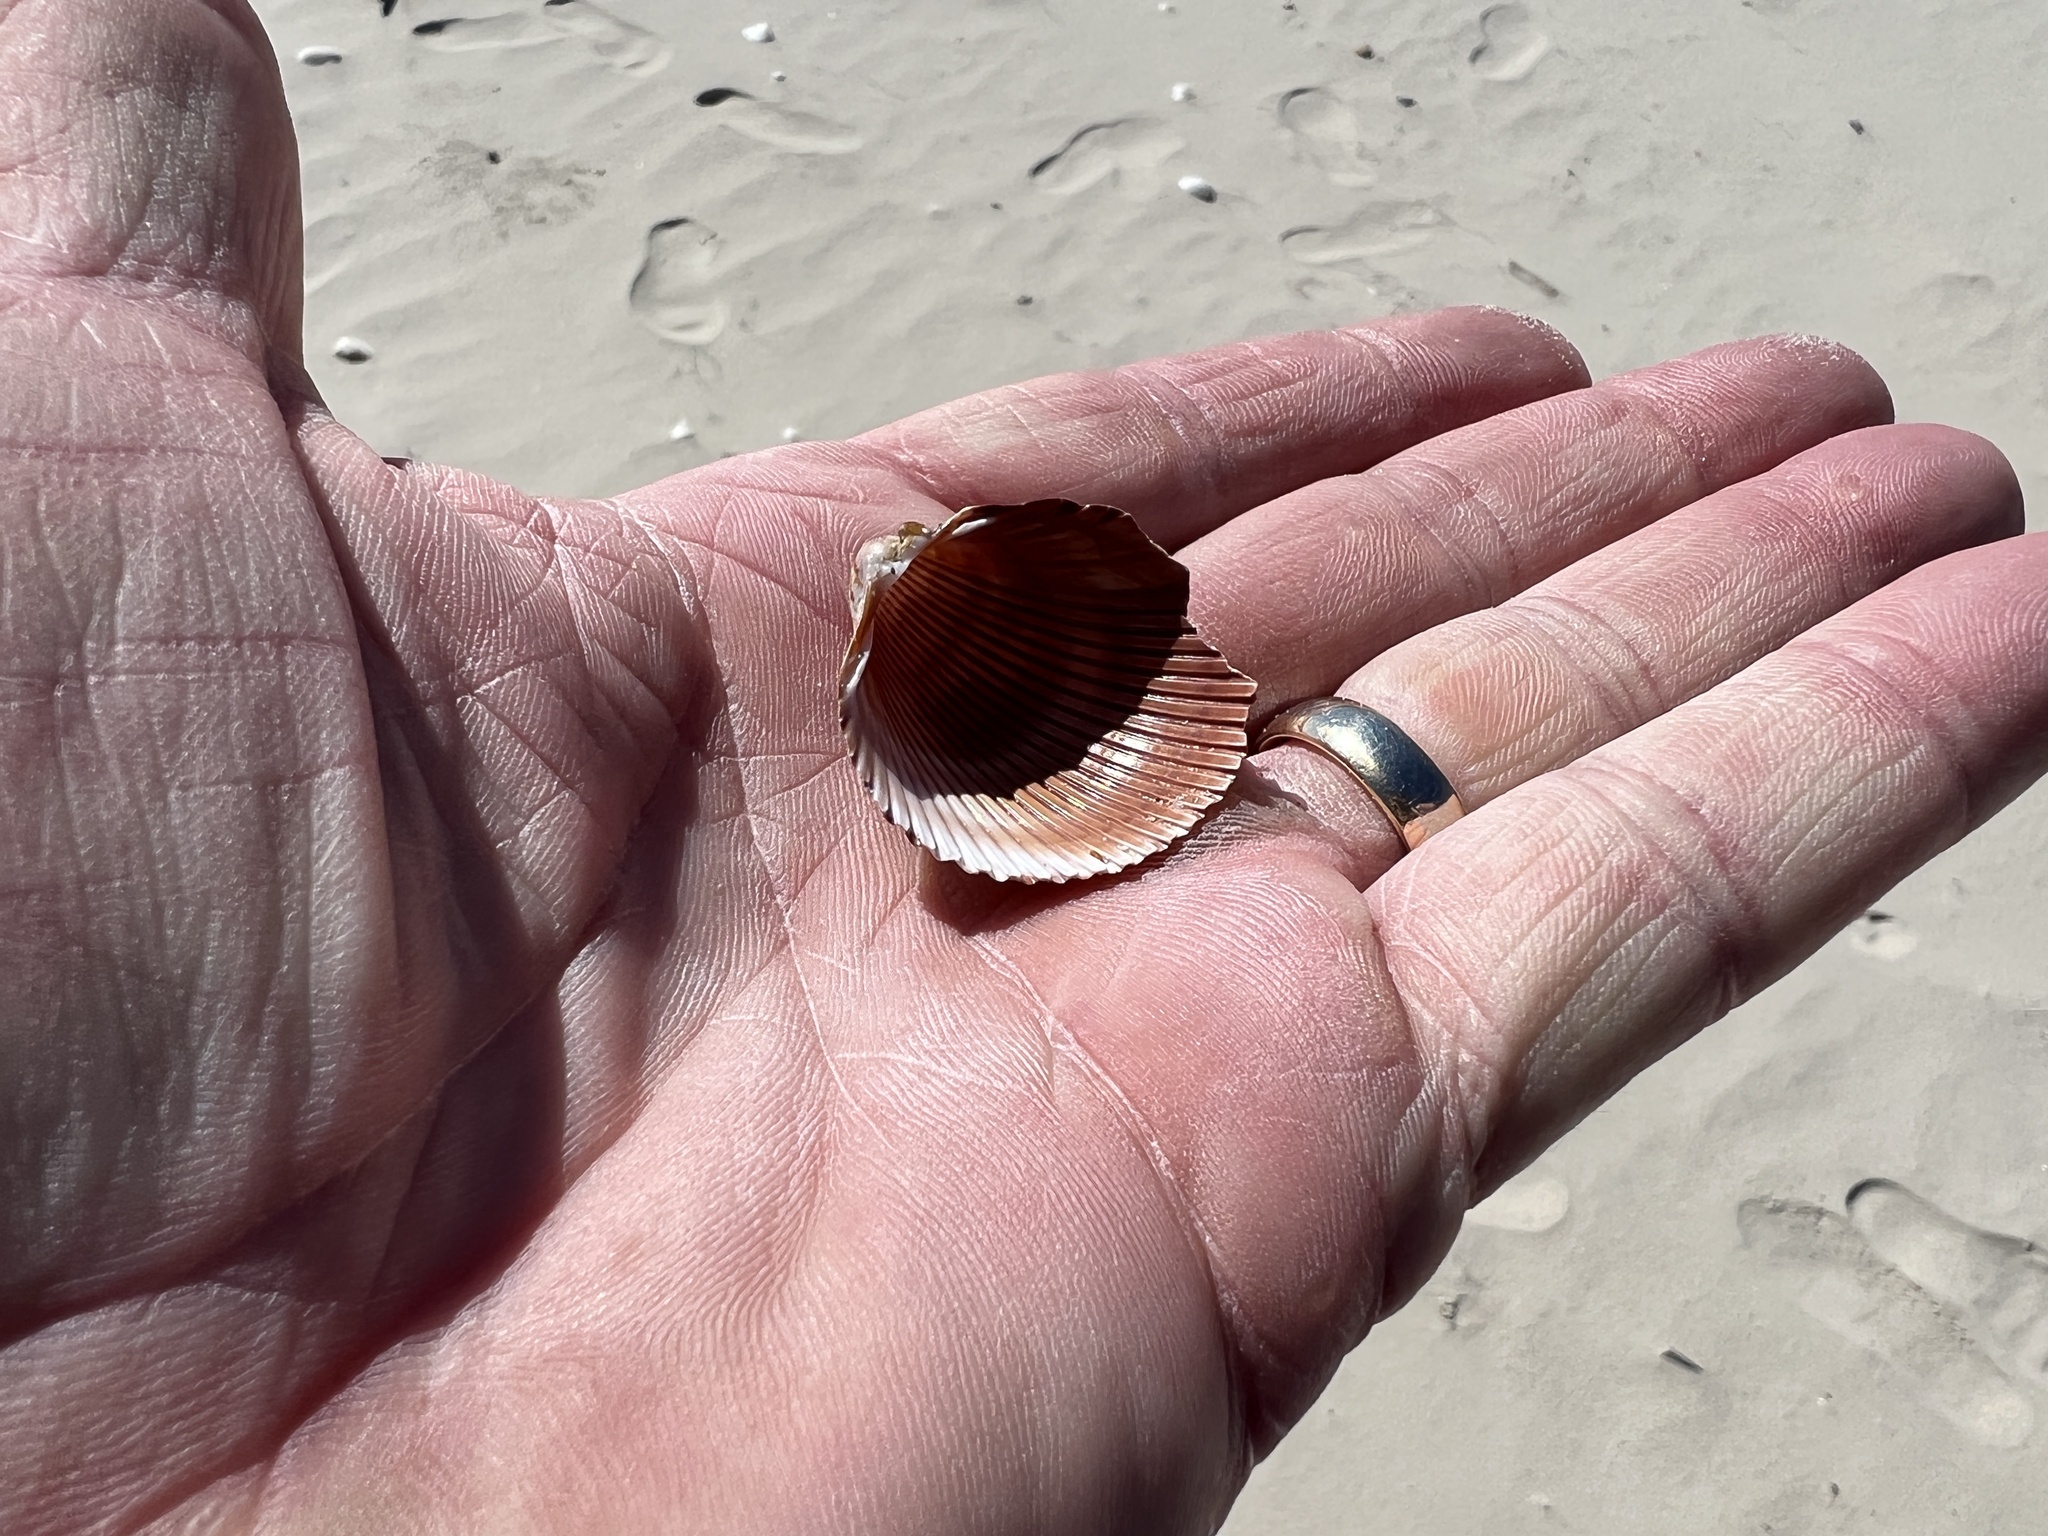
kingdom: Animalia
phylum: Mollusca
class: Bivalvia
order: Cardiida
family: Cardiidae
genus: Dinocardium
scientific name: Dinocardium robustum
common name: Atlantic giant cockle
